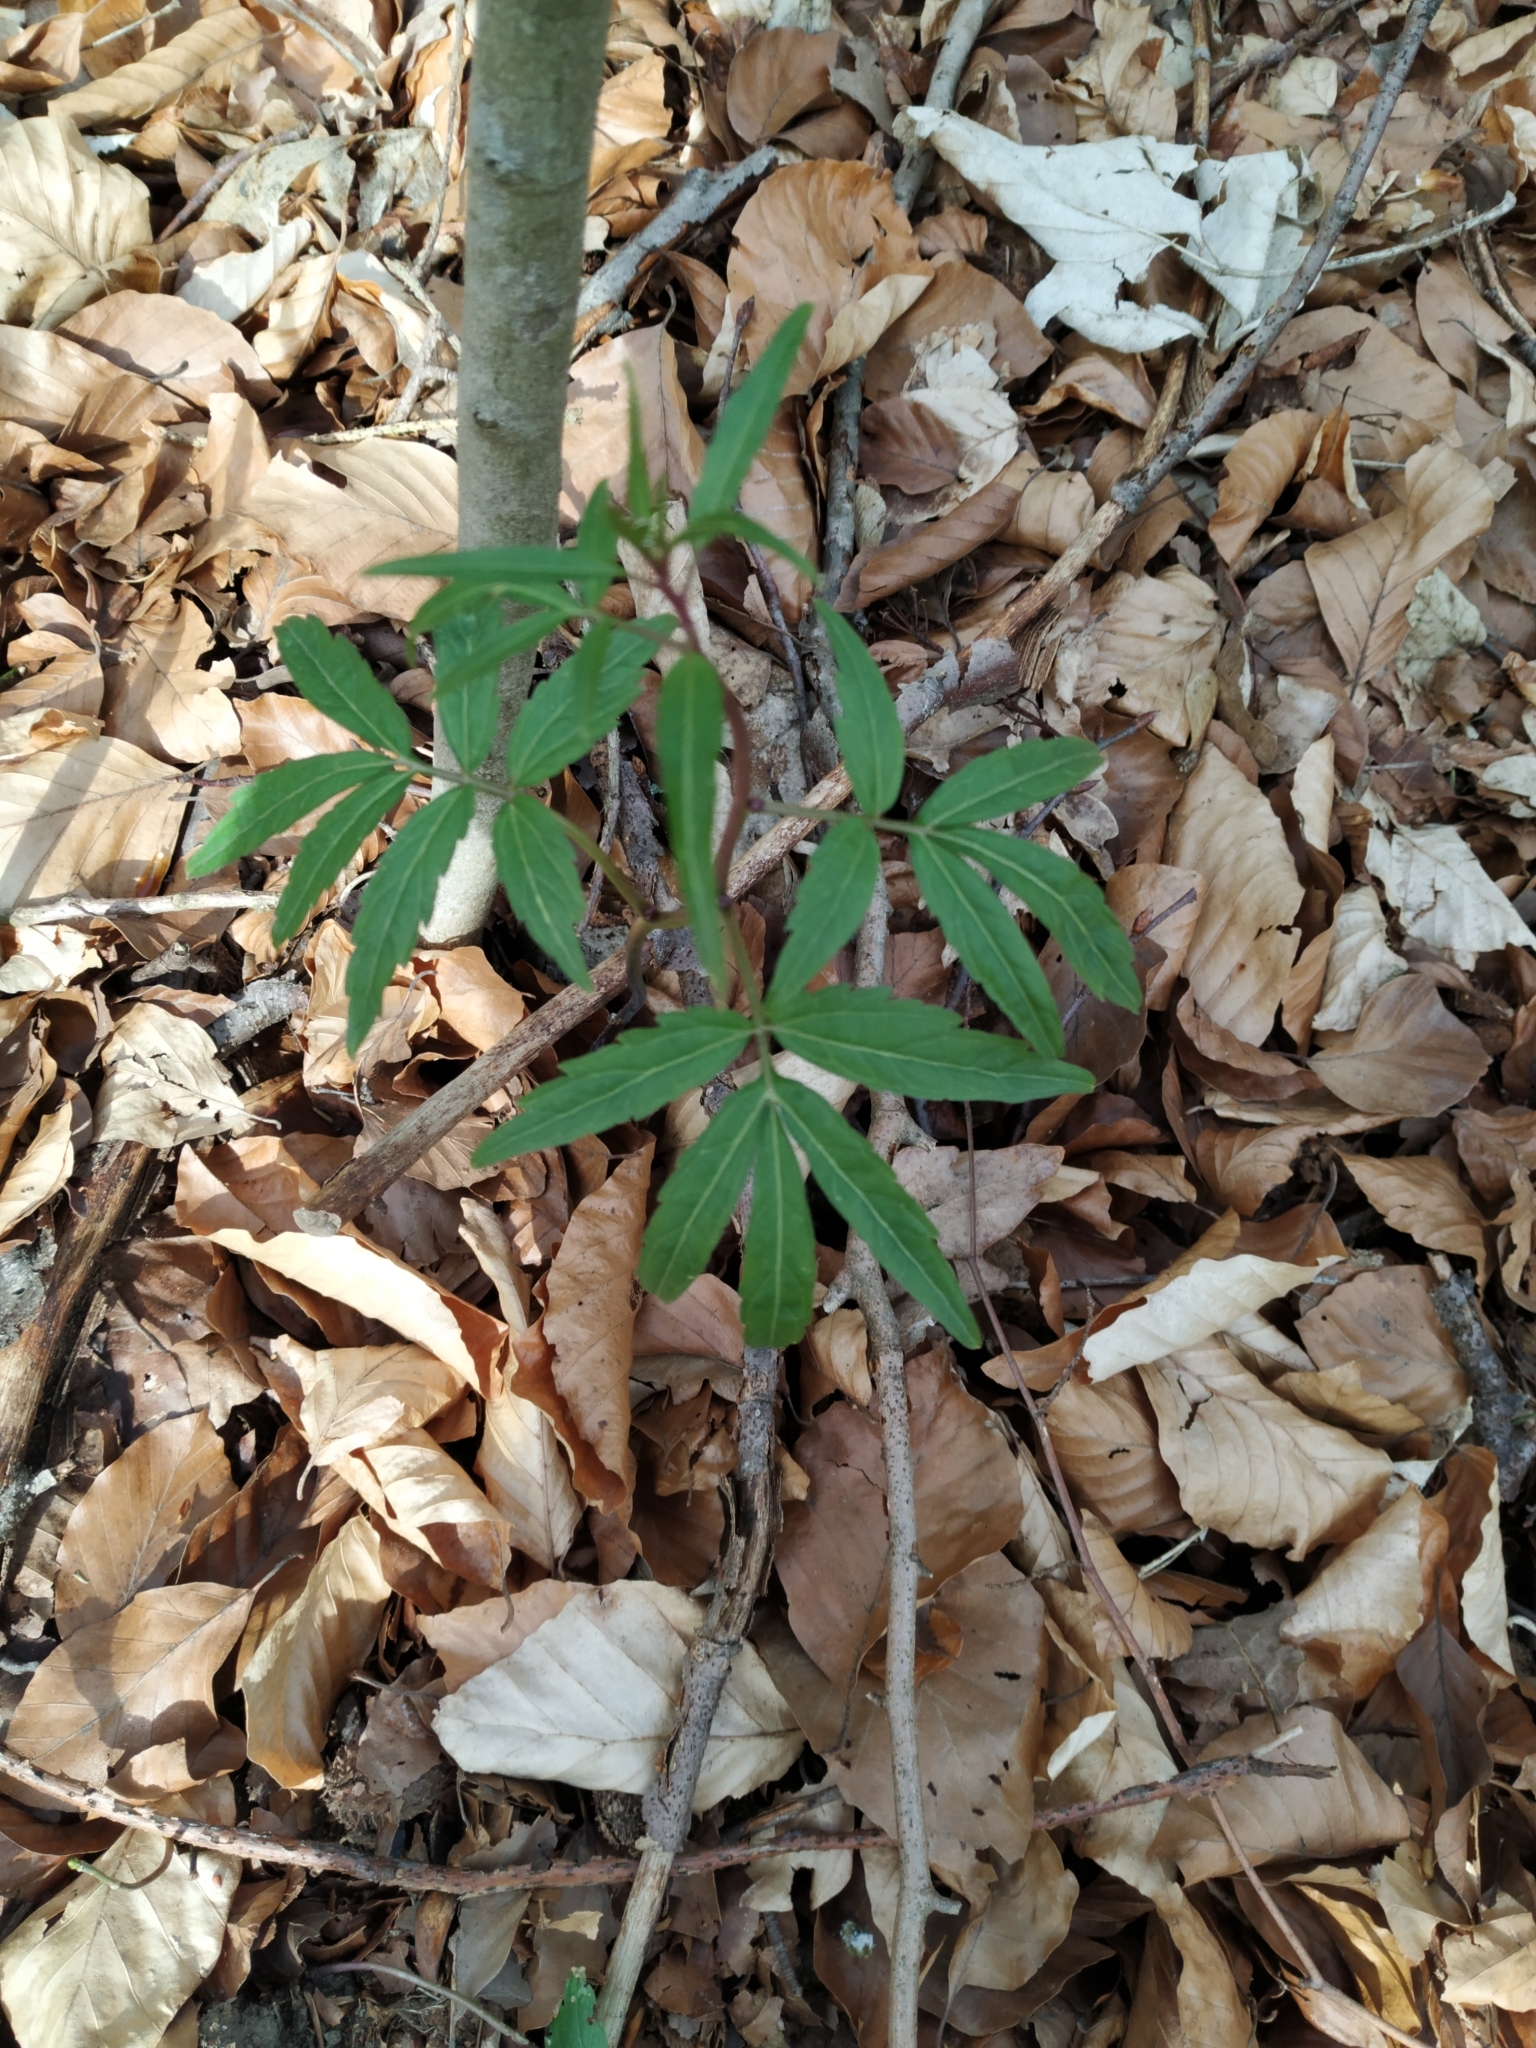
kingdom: Plantae
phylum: Tracheophyta
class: Magnoliopsida
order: Brassicales
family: Brassicaceae
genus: Cardamine
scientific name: Cardamine bulbifera
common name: Coralroot bittercress
